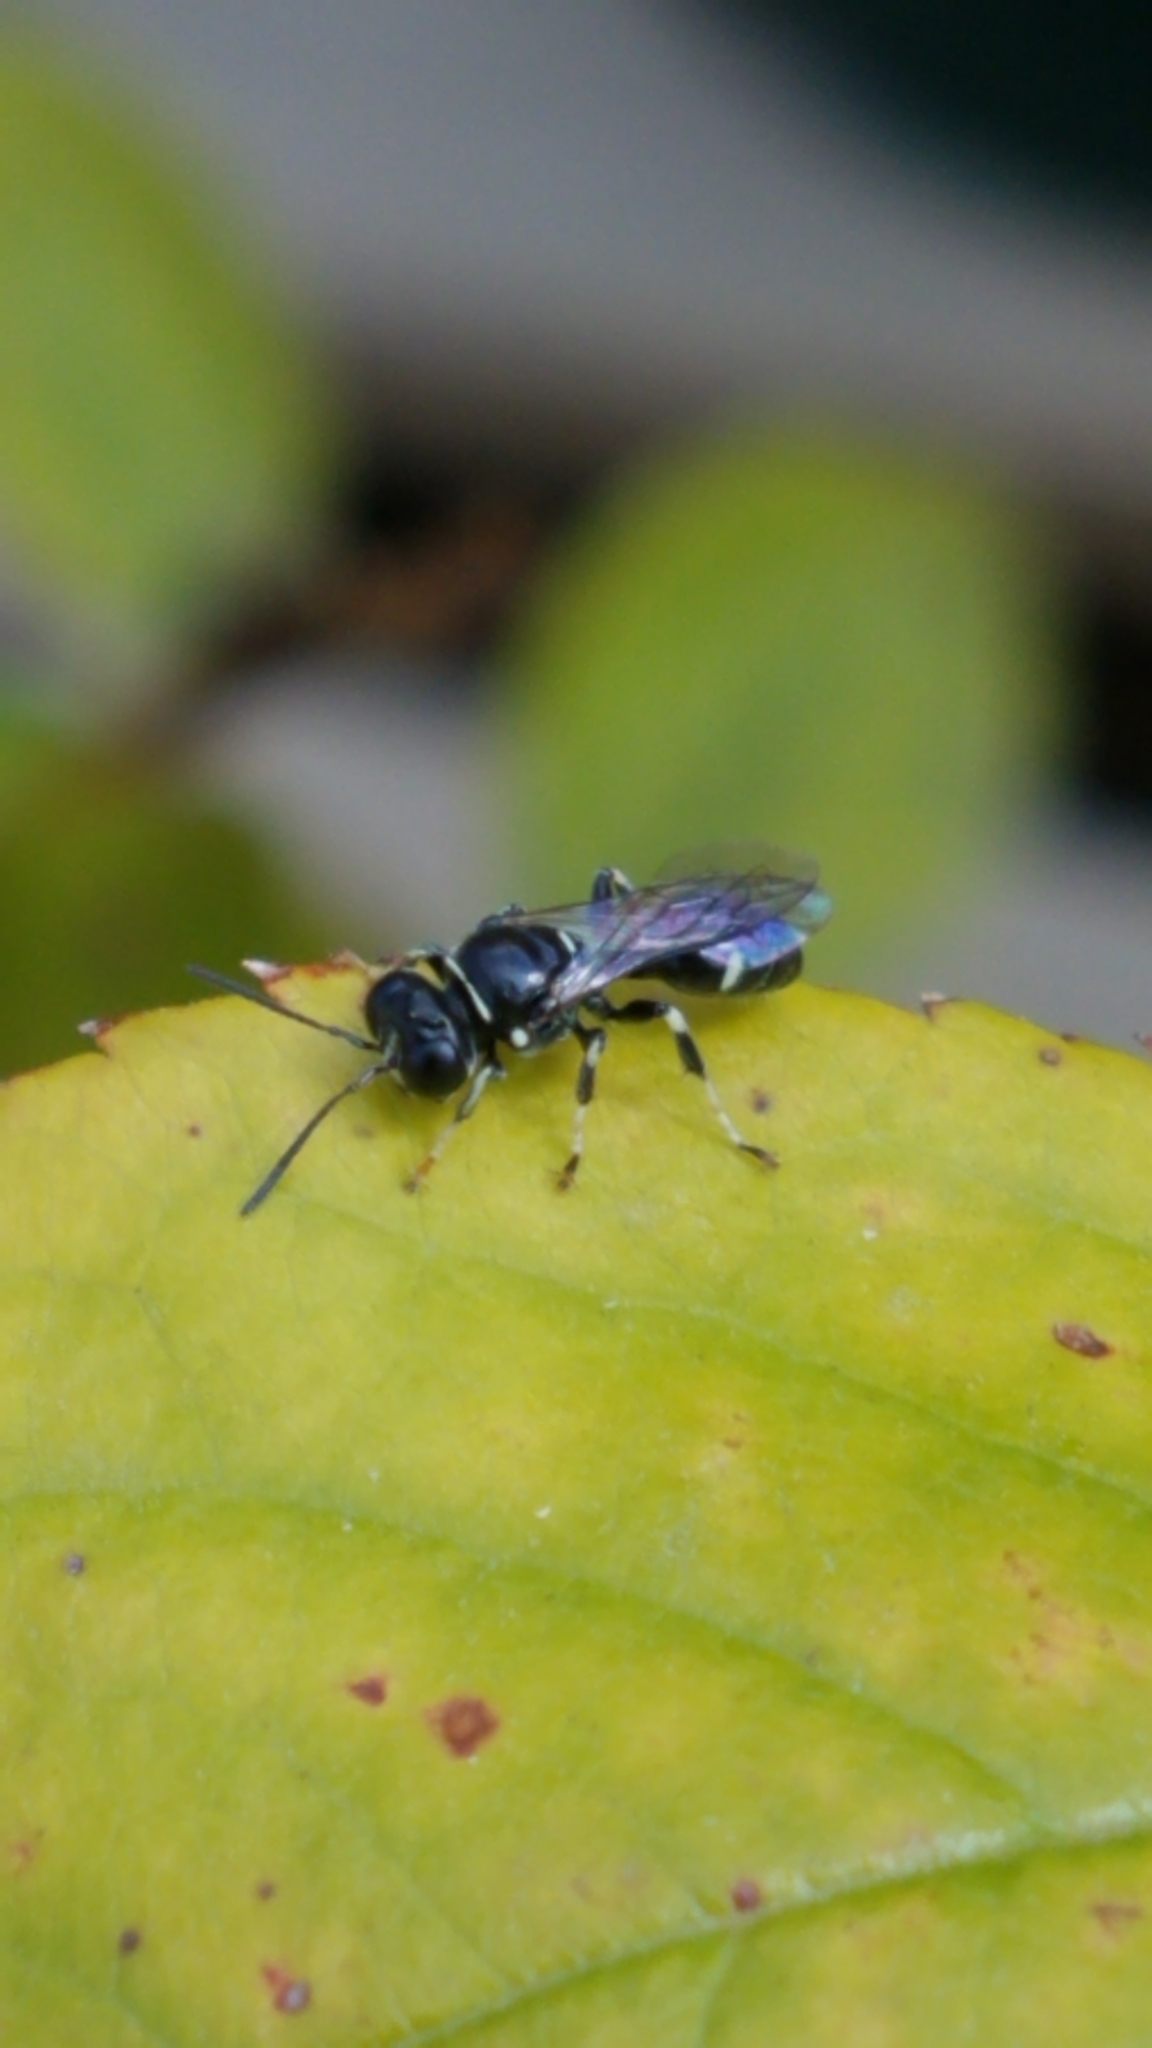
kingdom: Animalia
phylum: Arthropoda
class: Insecta
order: Hymenoptera
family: Crabronidae
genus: Clitemnestra
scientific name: Clitemnestra bipunctata
